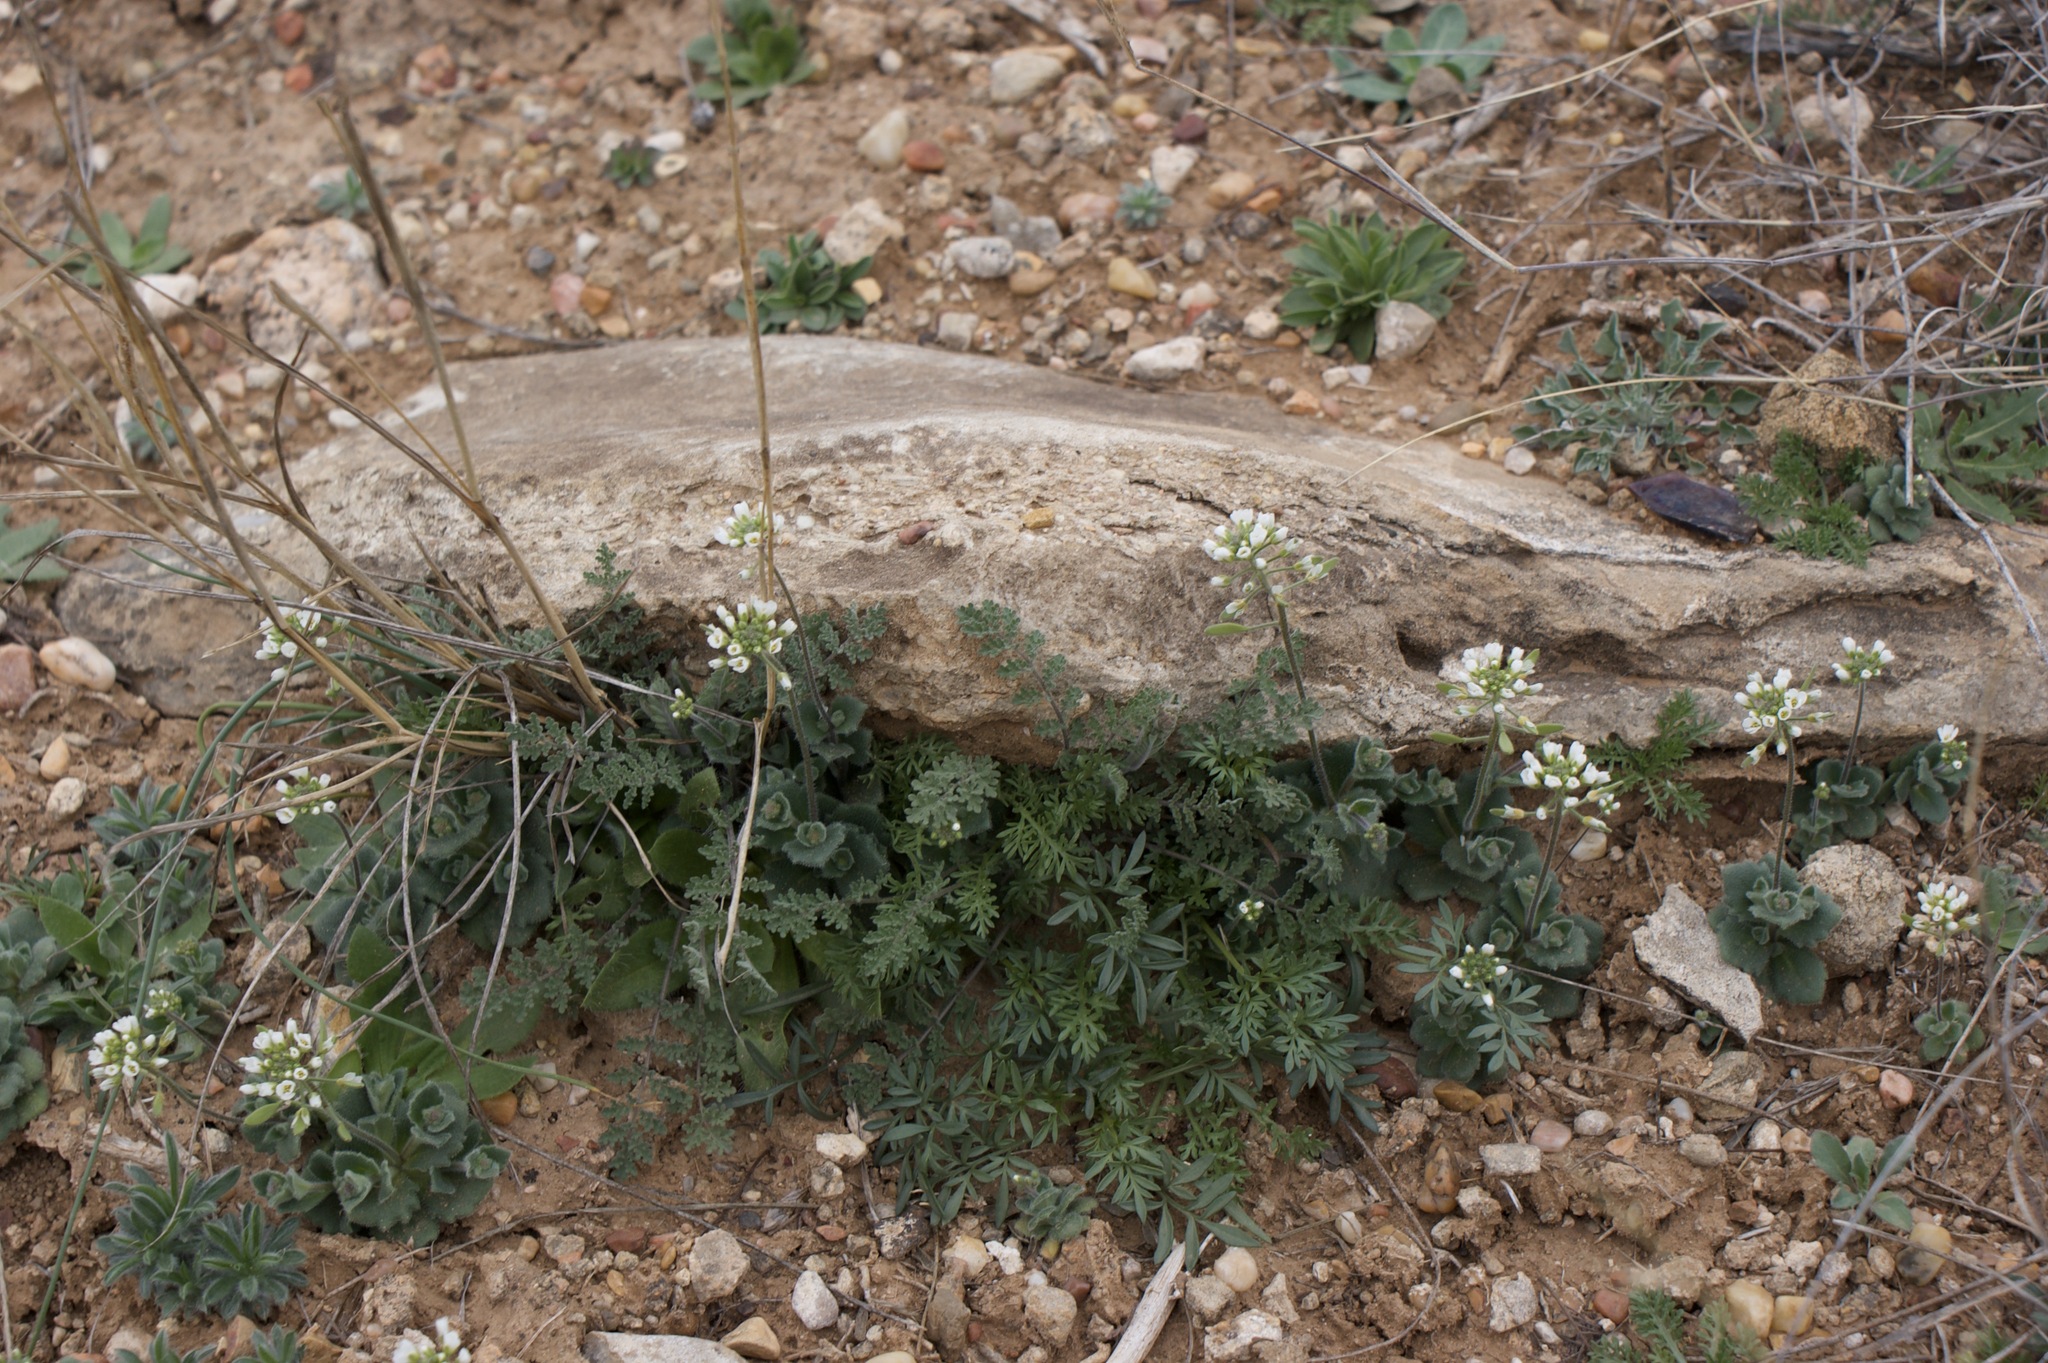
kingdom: Plantae
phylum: Tracheophyta
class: Magnoliopsida
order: Brassicales
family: Brassicaceae
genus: Tomostima
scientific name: Tomostima cuneifolia
